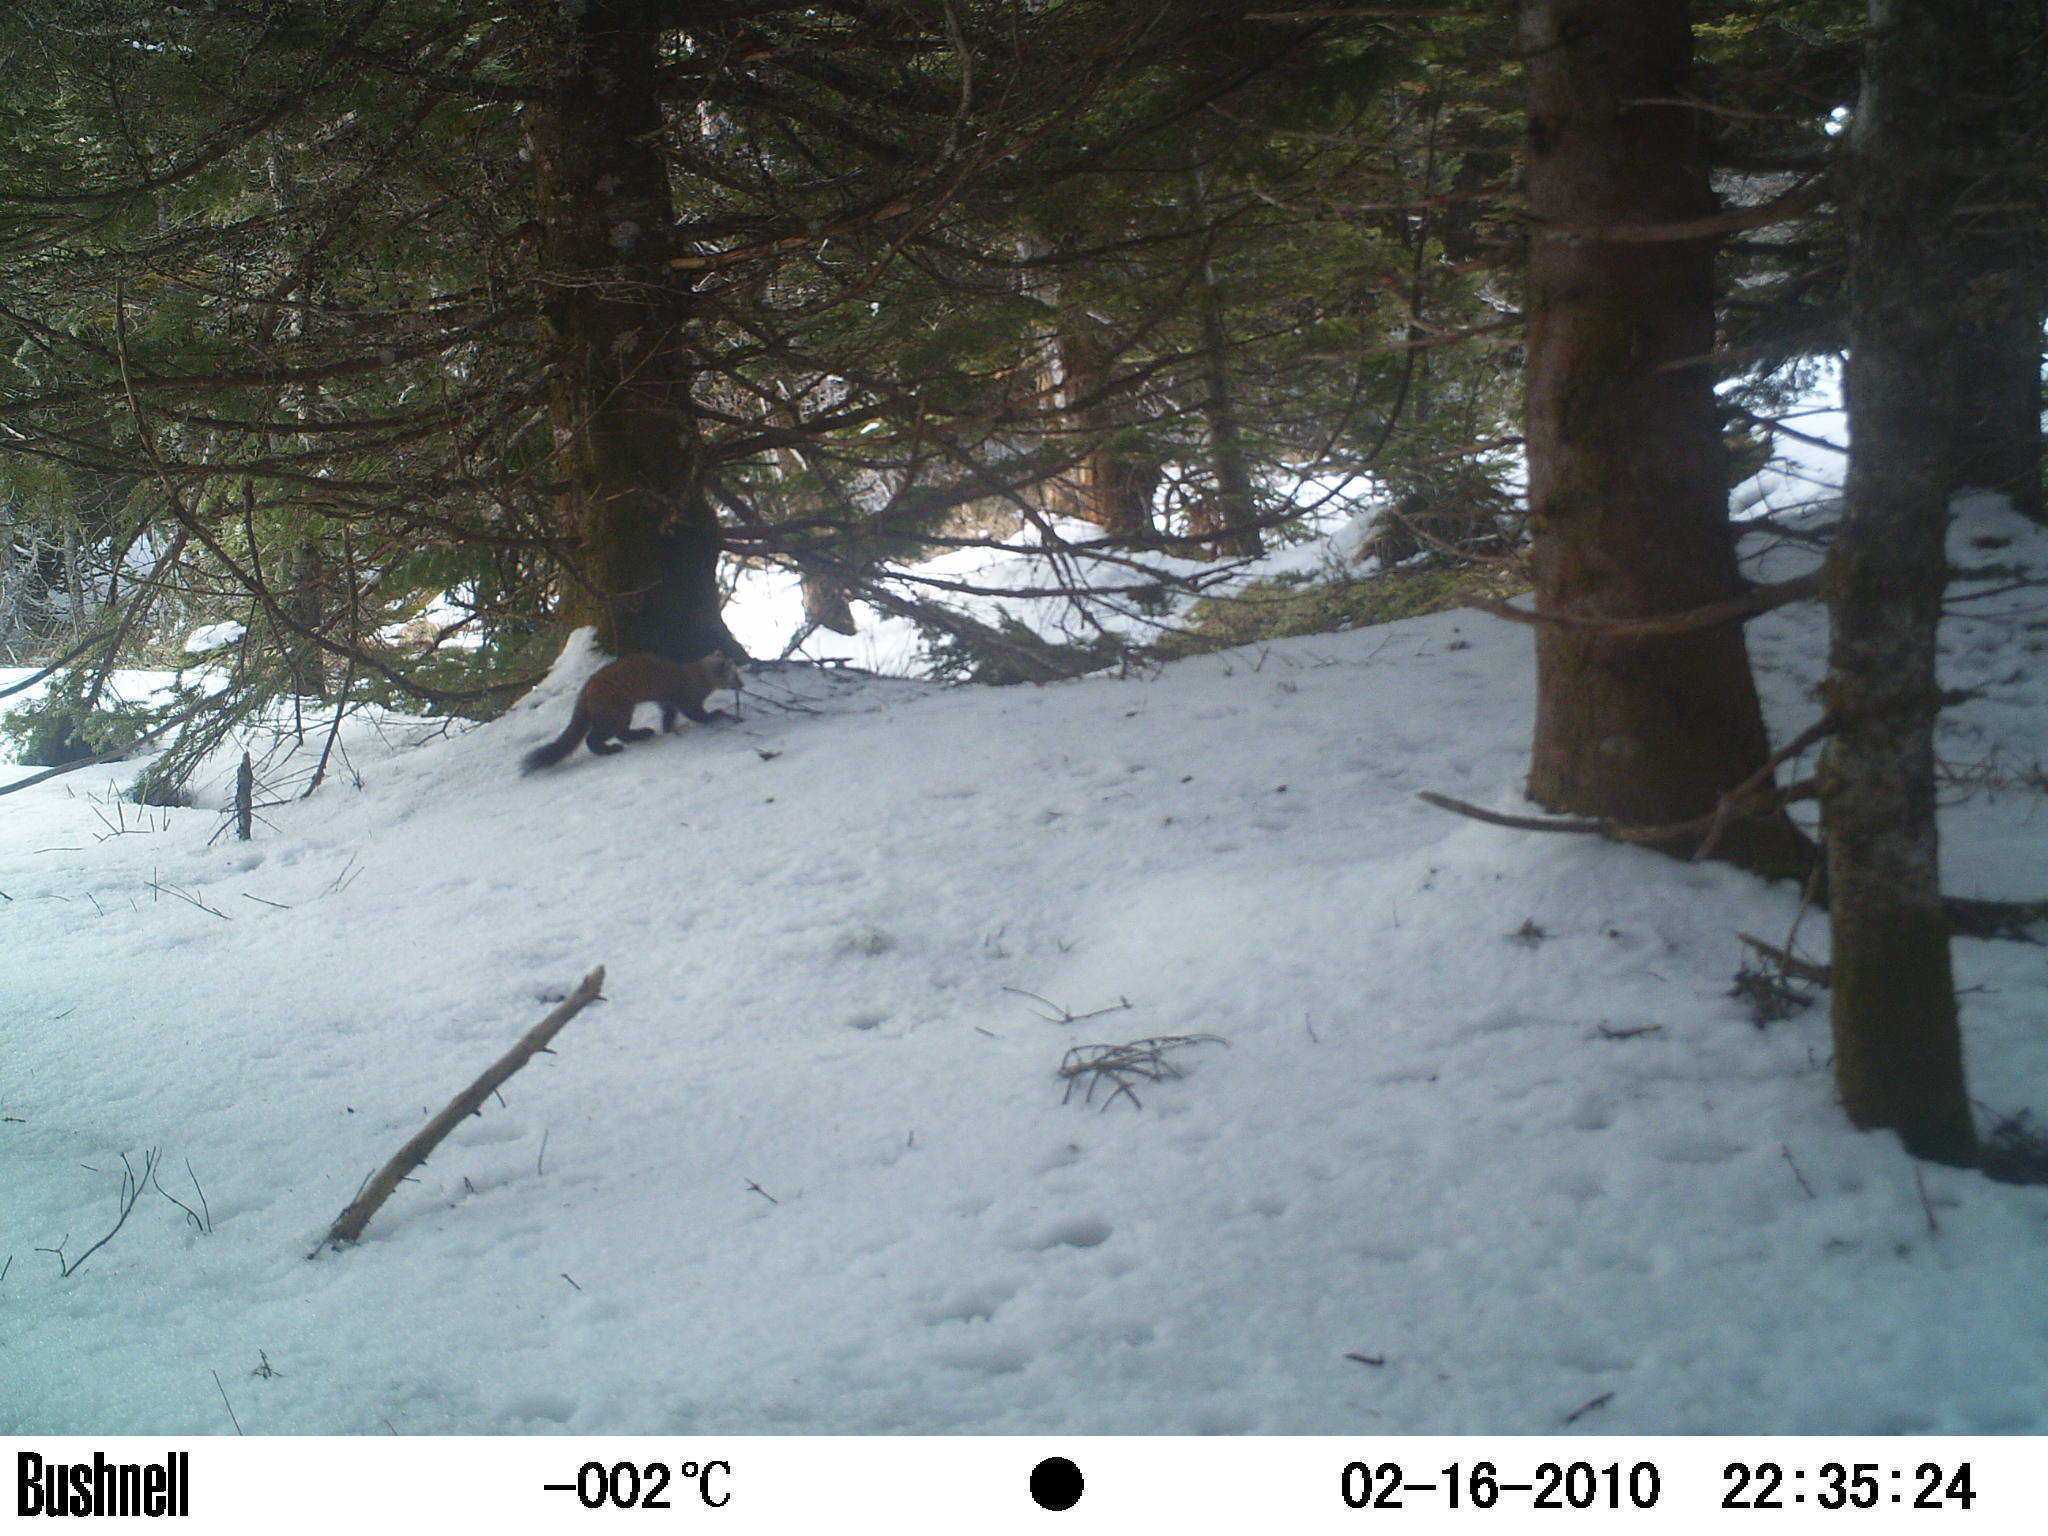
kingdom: Animalia
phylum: Chordata
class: Mammalia
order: Carnivora
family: Mustelidae
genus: Martes
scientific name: Martes americana
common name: American marten
